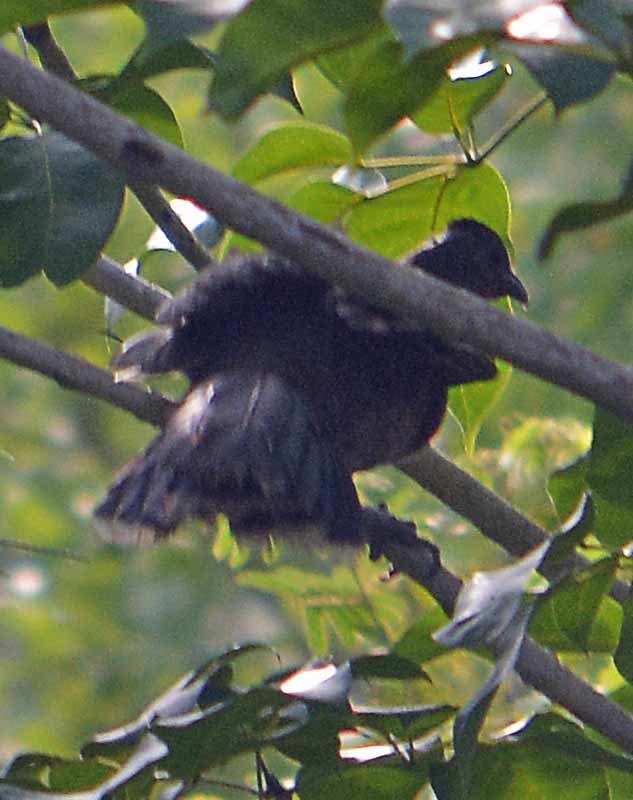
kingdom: Animalia
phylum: Chordata
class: Aves
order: Galliformes
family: Cracidae
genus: Ortalis
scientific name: Ortalis vetula
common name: Plain chachalaca
